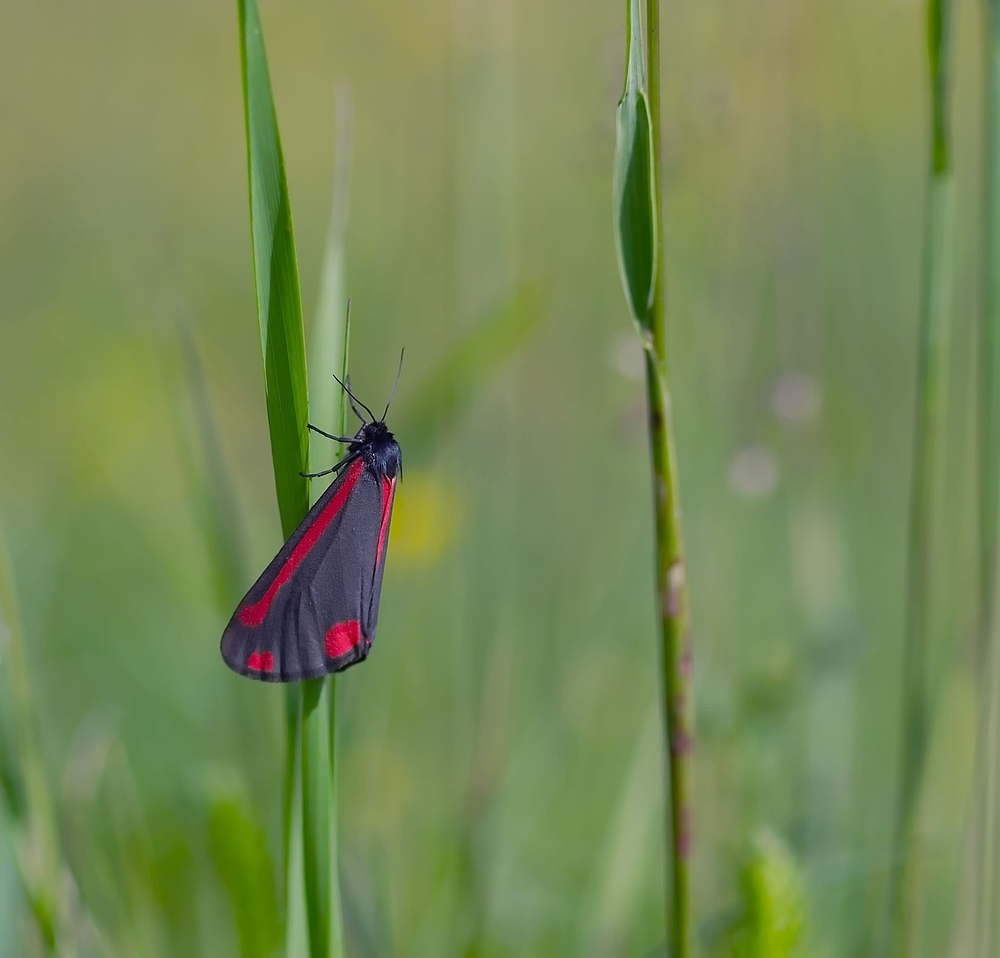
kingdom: Animalia
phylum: Arthropoda
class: Insecta
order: Lepidoptera
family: Erebidae
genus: Tyria
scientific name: Tyria jacobaeae
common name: Cinnabar
